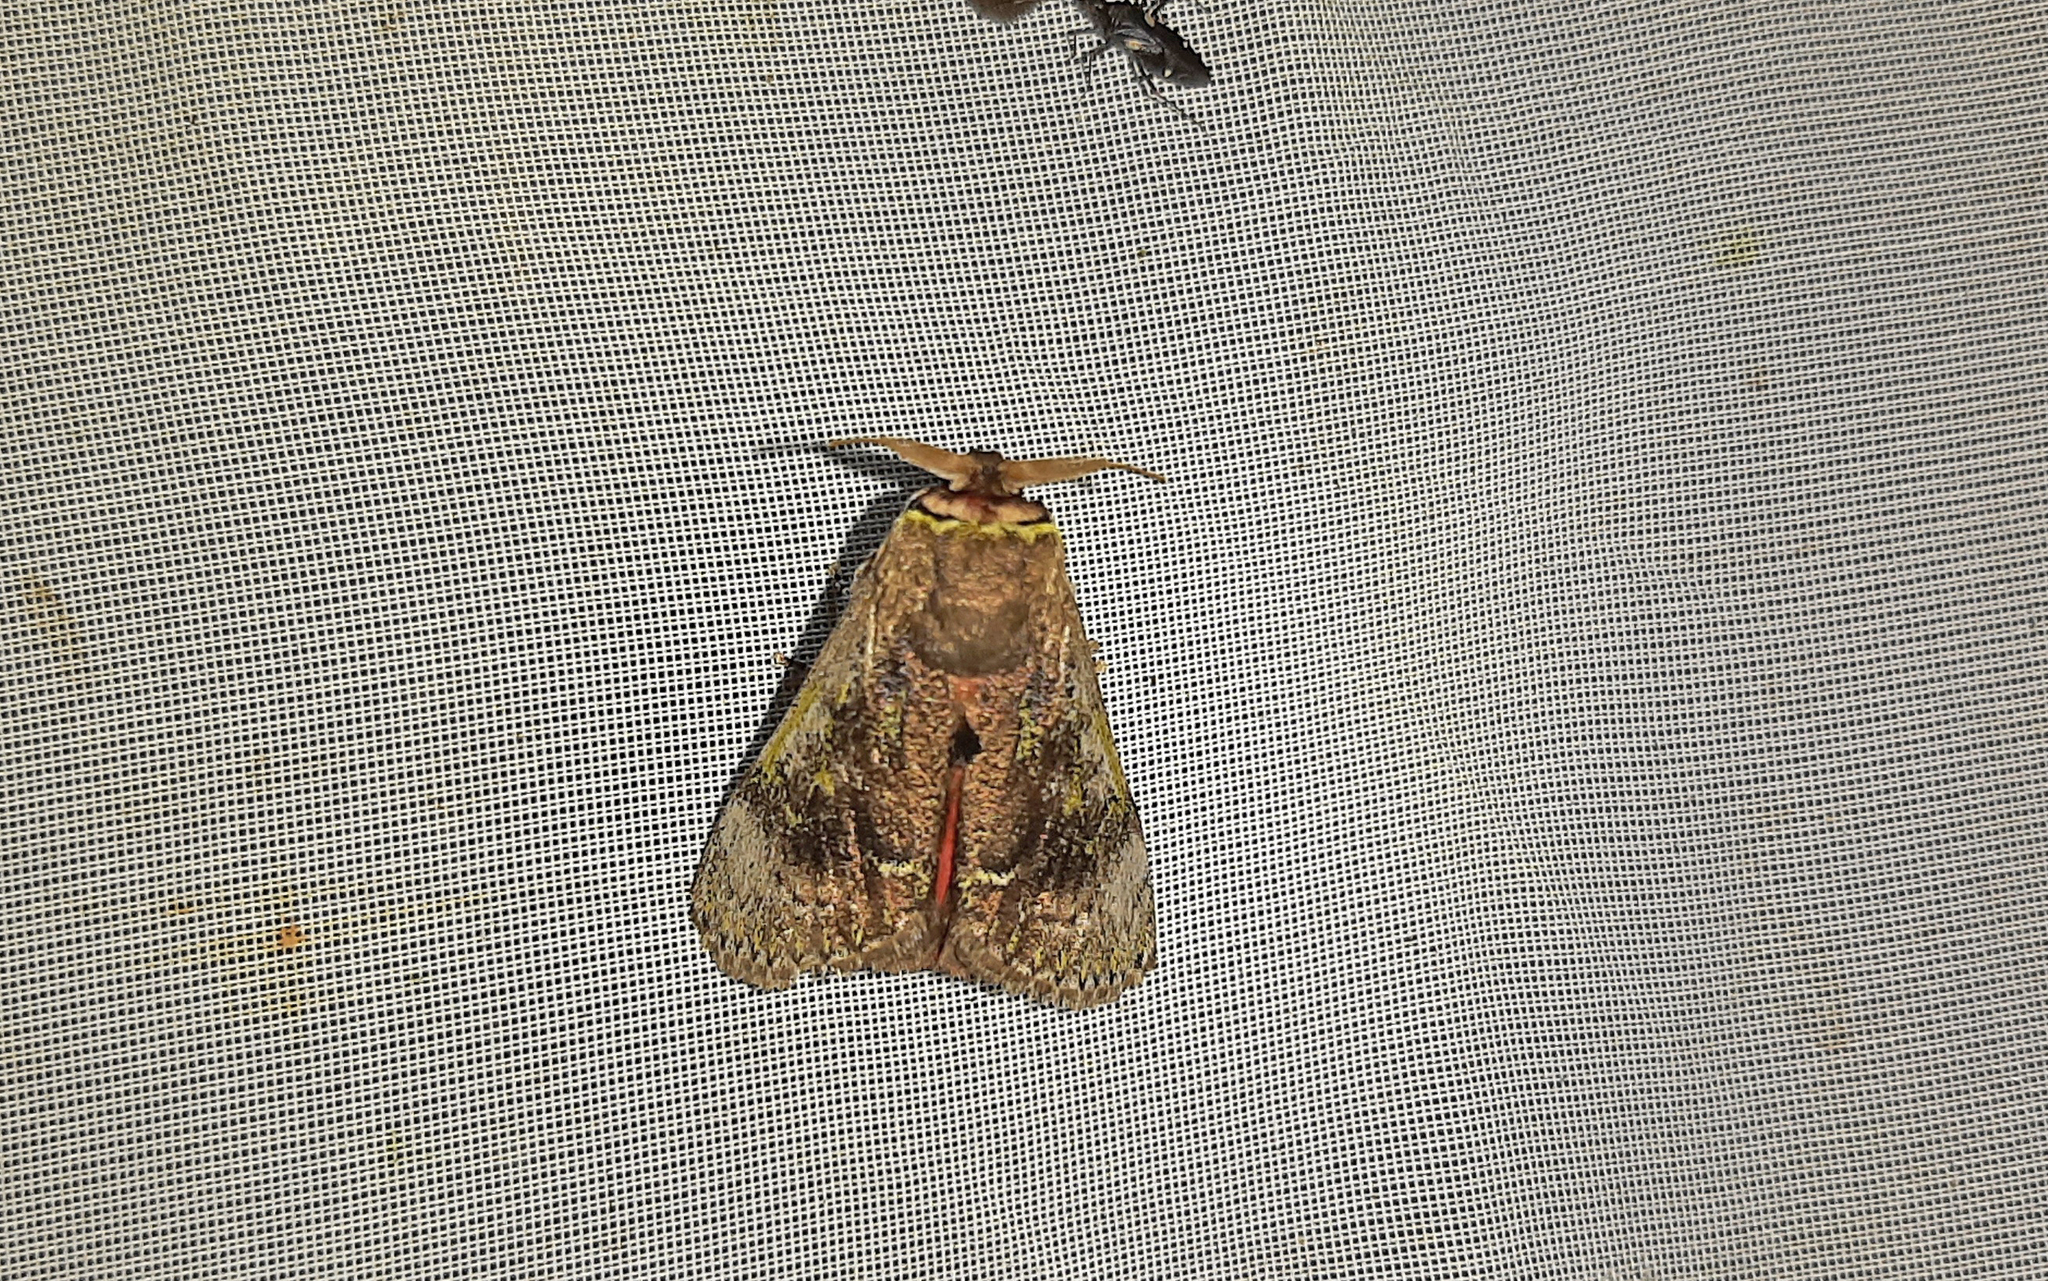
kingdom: Animalia
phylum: Arthropoda
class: Insecta
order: Lepidoptera
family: Aididae
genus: Aidos
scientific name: Aidos yamouna
